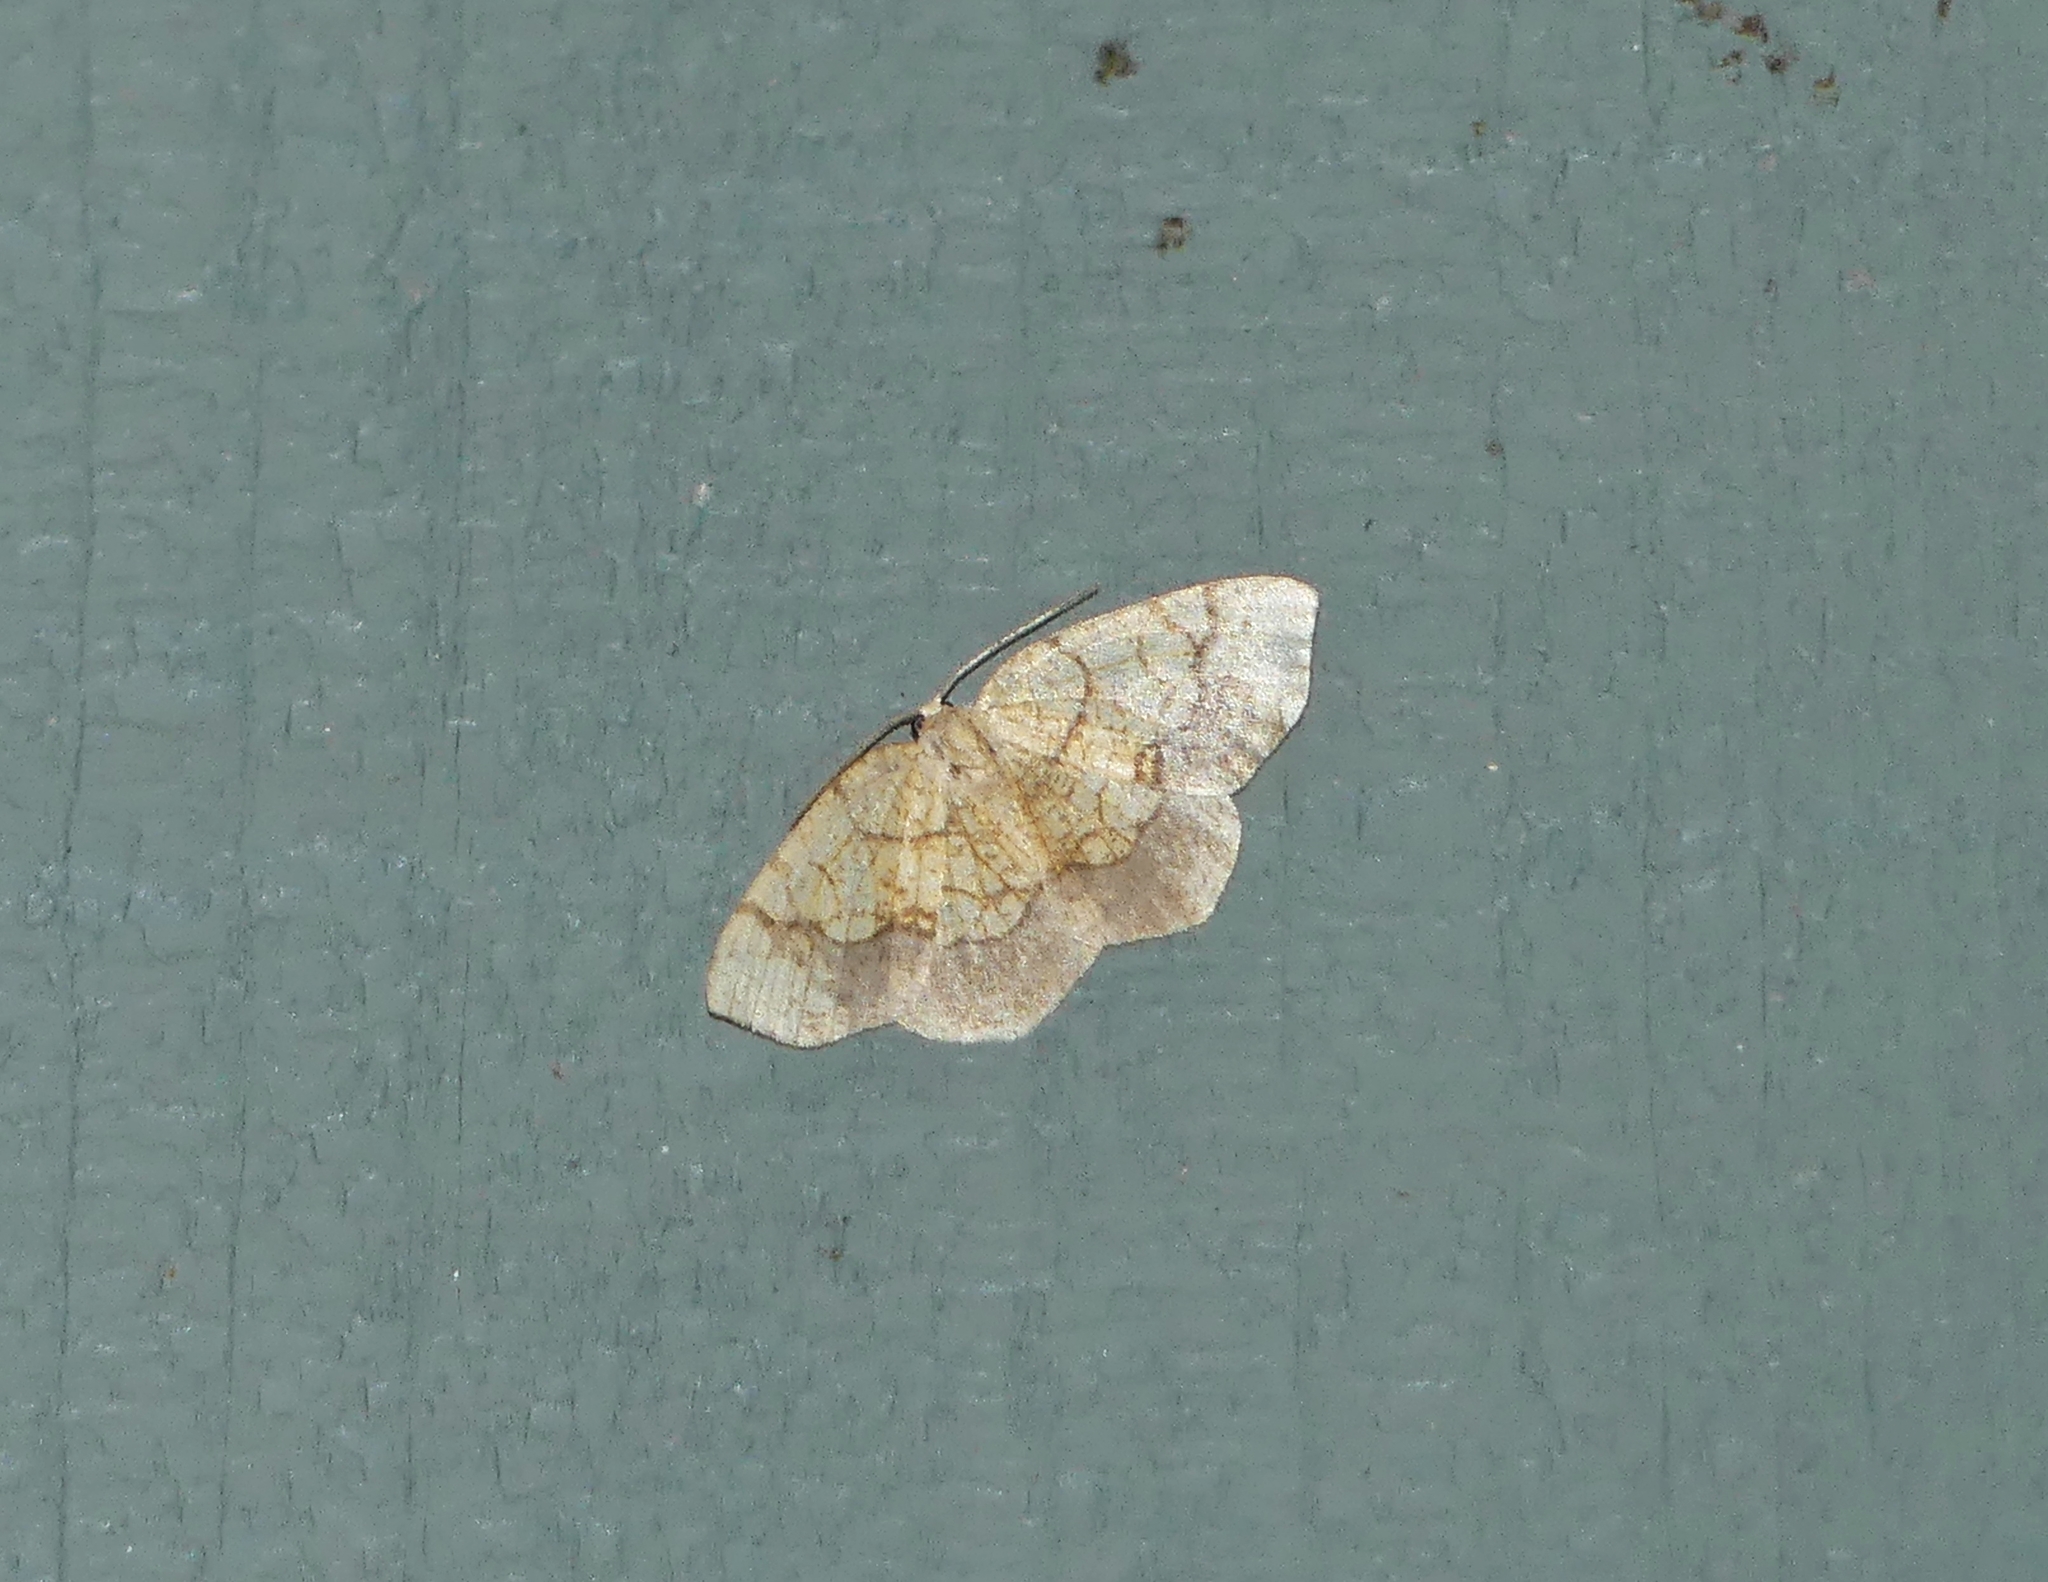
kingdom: Animalia
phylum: Arthropoda
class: Insecta
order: Lepidoptera
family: Geometridae
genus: Nematocampa
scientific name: Nematocampa resistaria
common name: Horned spanworm moth
